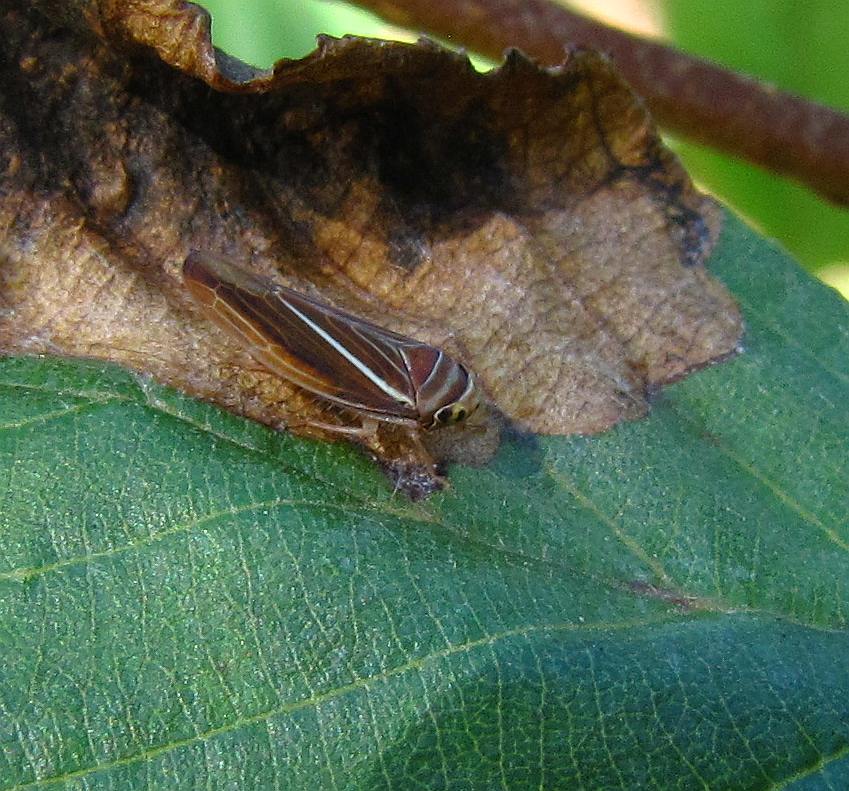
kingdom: Animalia
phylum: Arthropoda
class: Insecta
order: Hemiptera
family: Cicadellidae
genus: Idiodonus
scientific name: Idiodonus kennicotti
